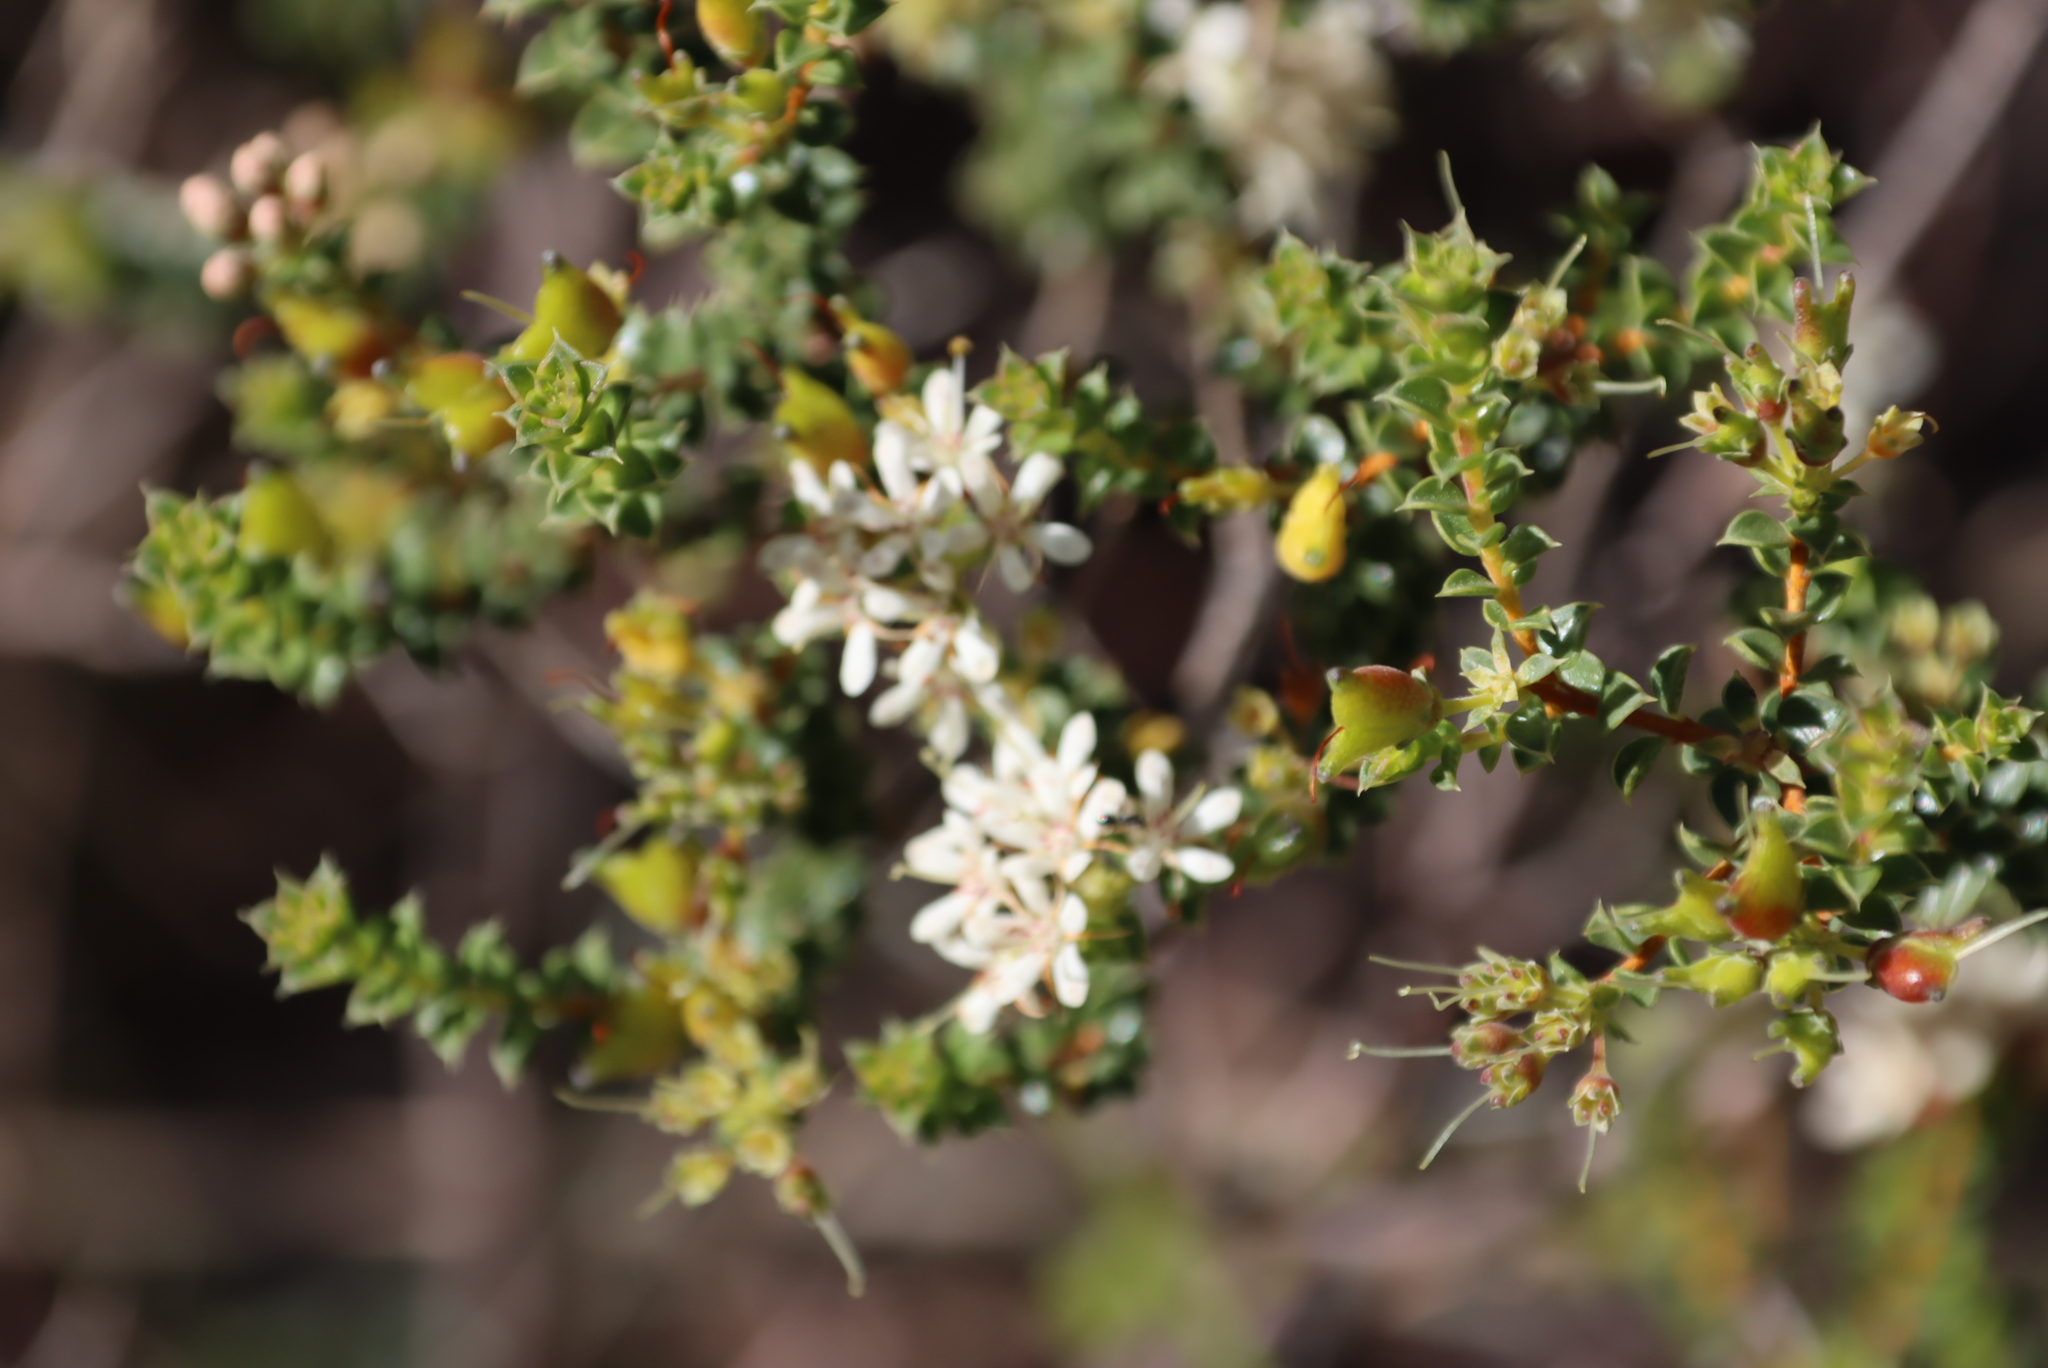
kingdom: Plantae
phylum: Tracheophyta
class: Magnoliopsida
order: Sapindales
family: Rutaceae
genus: Agathosma
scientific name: Agathosma recurvifolia
